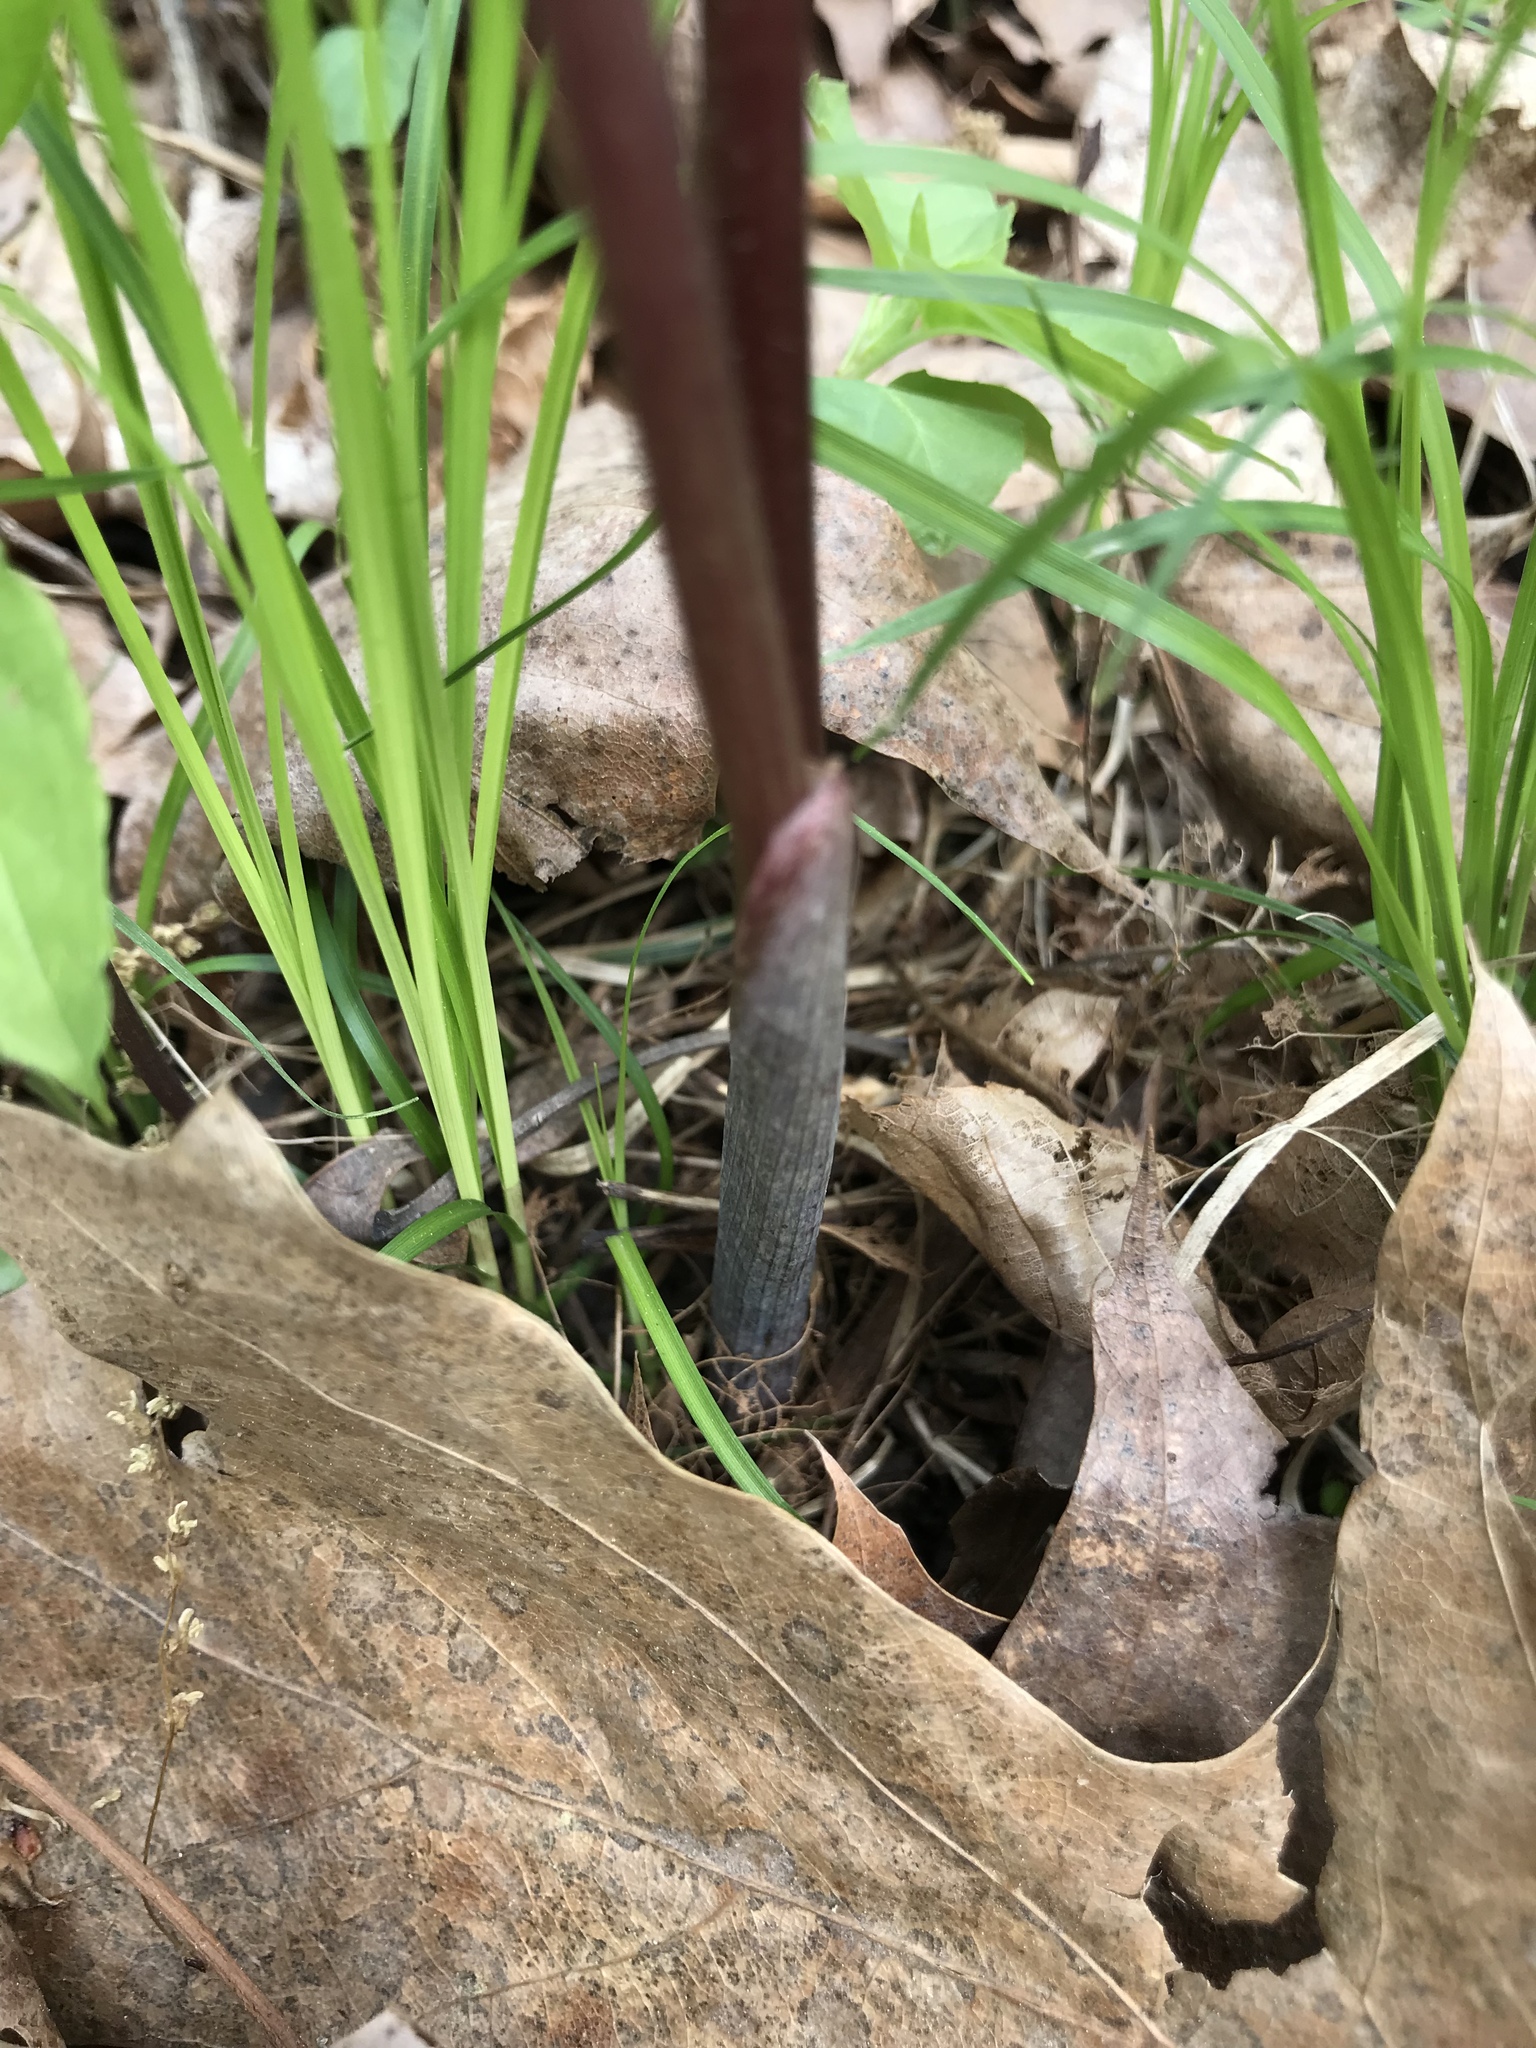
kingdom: Plantae
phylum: Tracheophyta
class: Liliopsida
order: Alismatales
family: Araceae
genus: Arisaema
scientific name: Arisaema triphyllum
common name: Jack-in-the-pulpit
